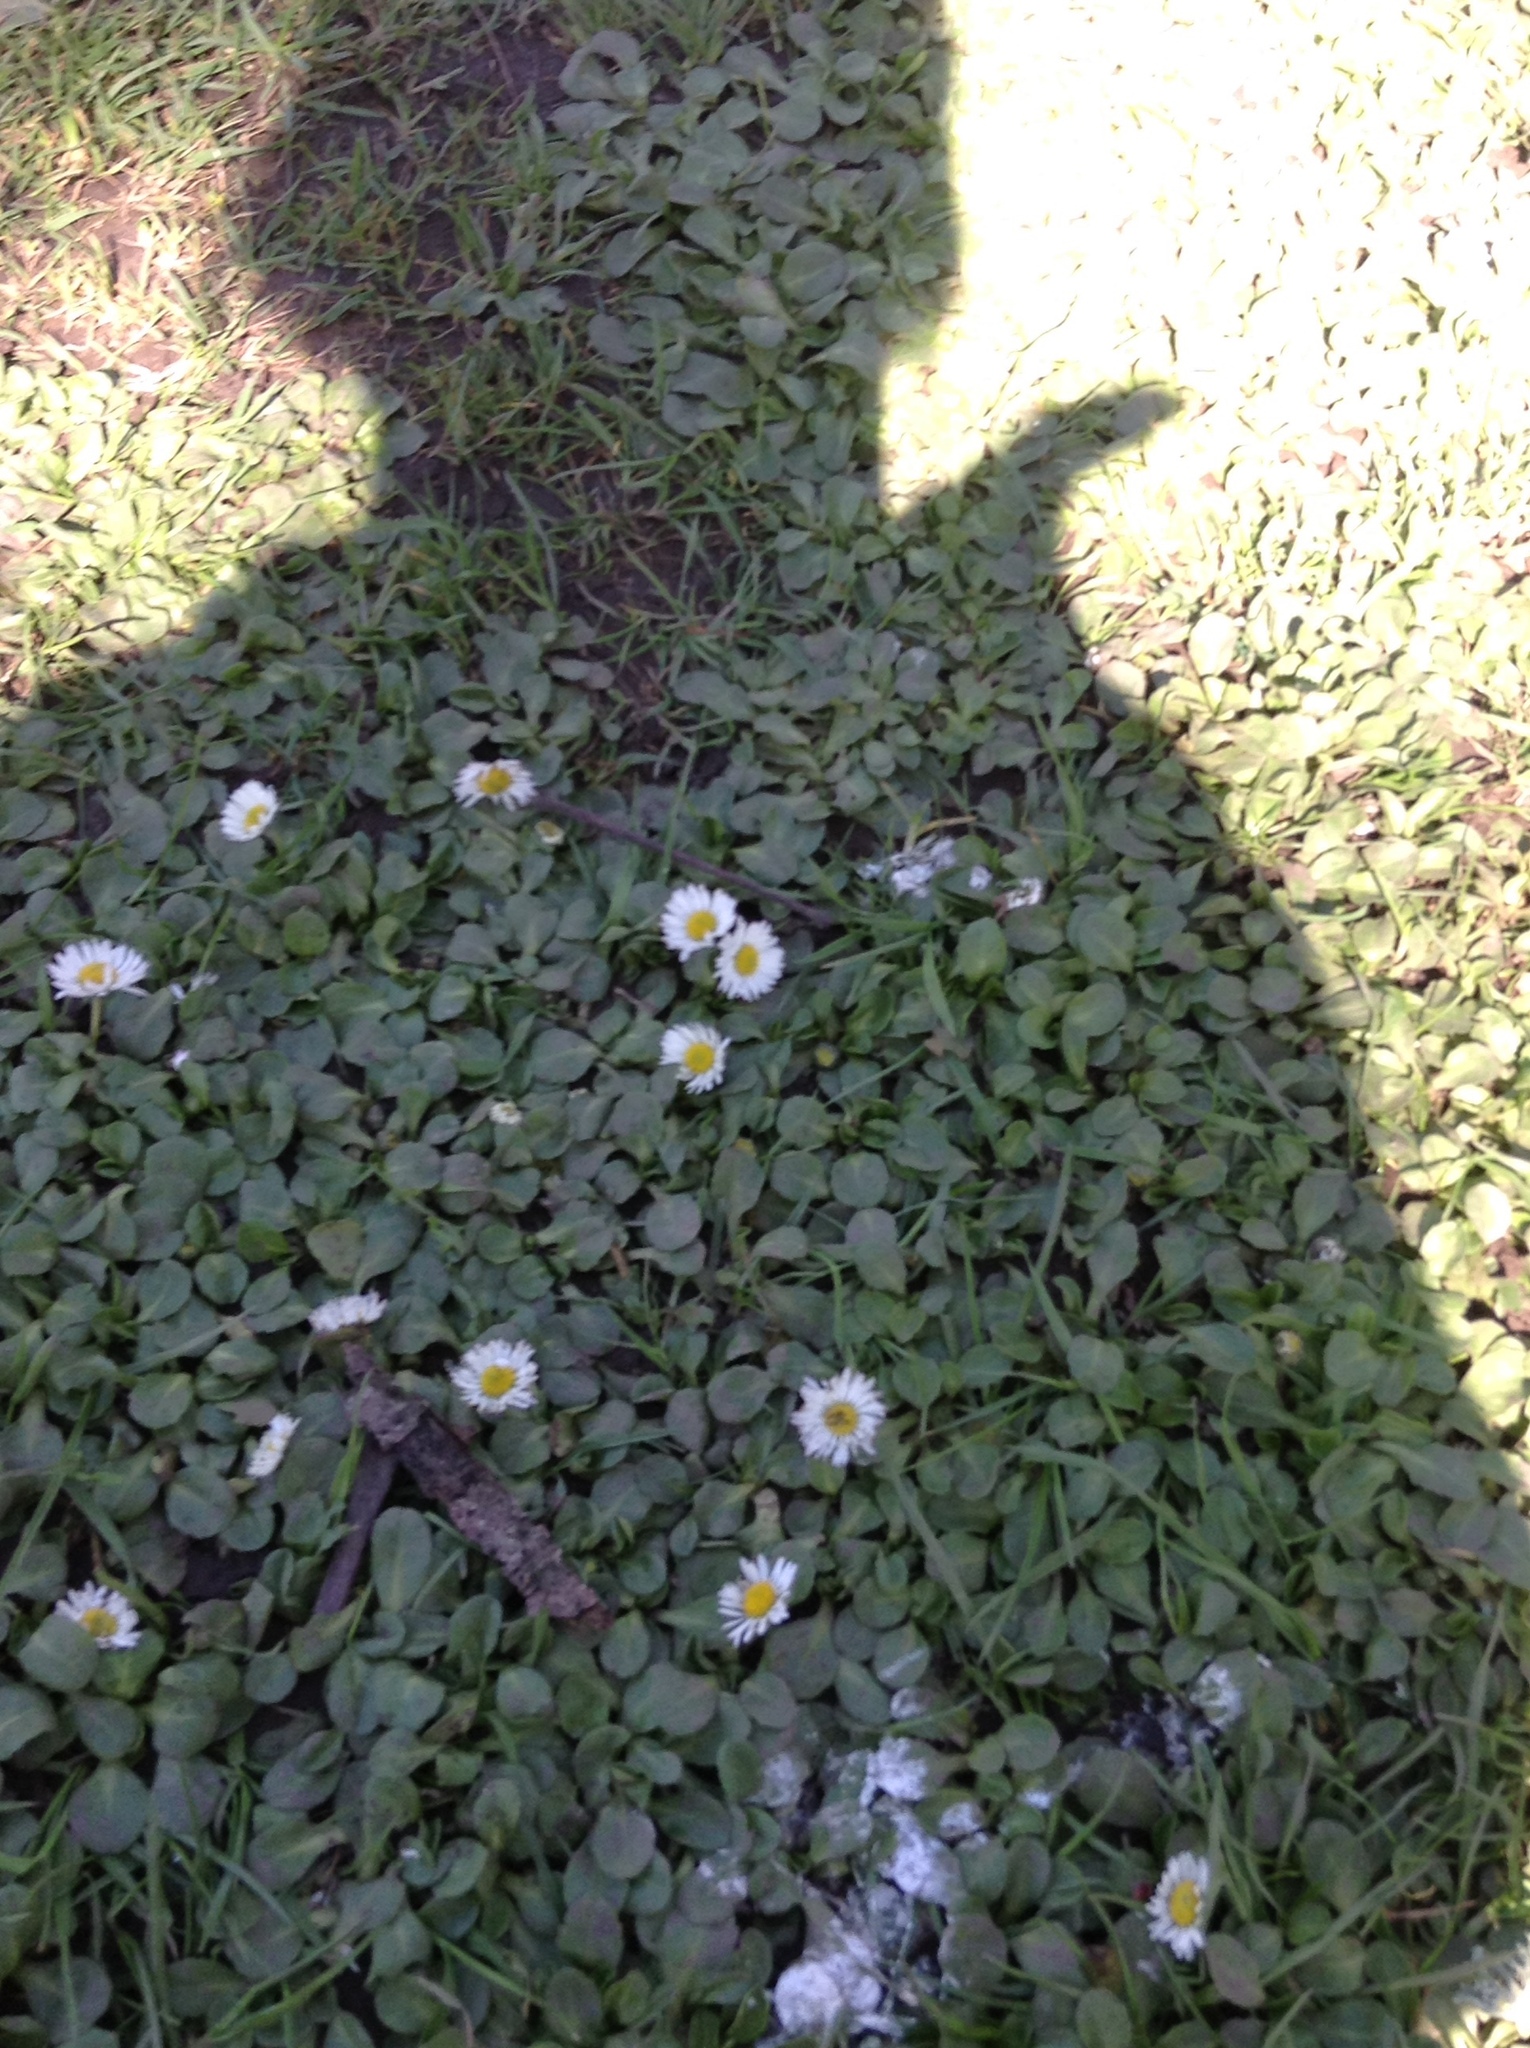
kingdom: Plantae
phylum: Tracheophyta
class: Magnoliopsida
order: Asterales
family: Asteraceae
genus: Bellis
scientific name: Bellis perennis
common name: Lawndaisy
